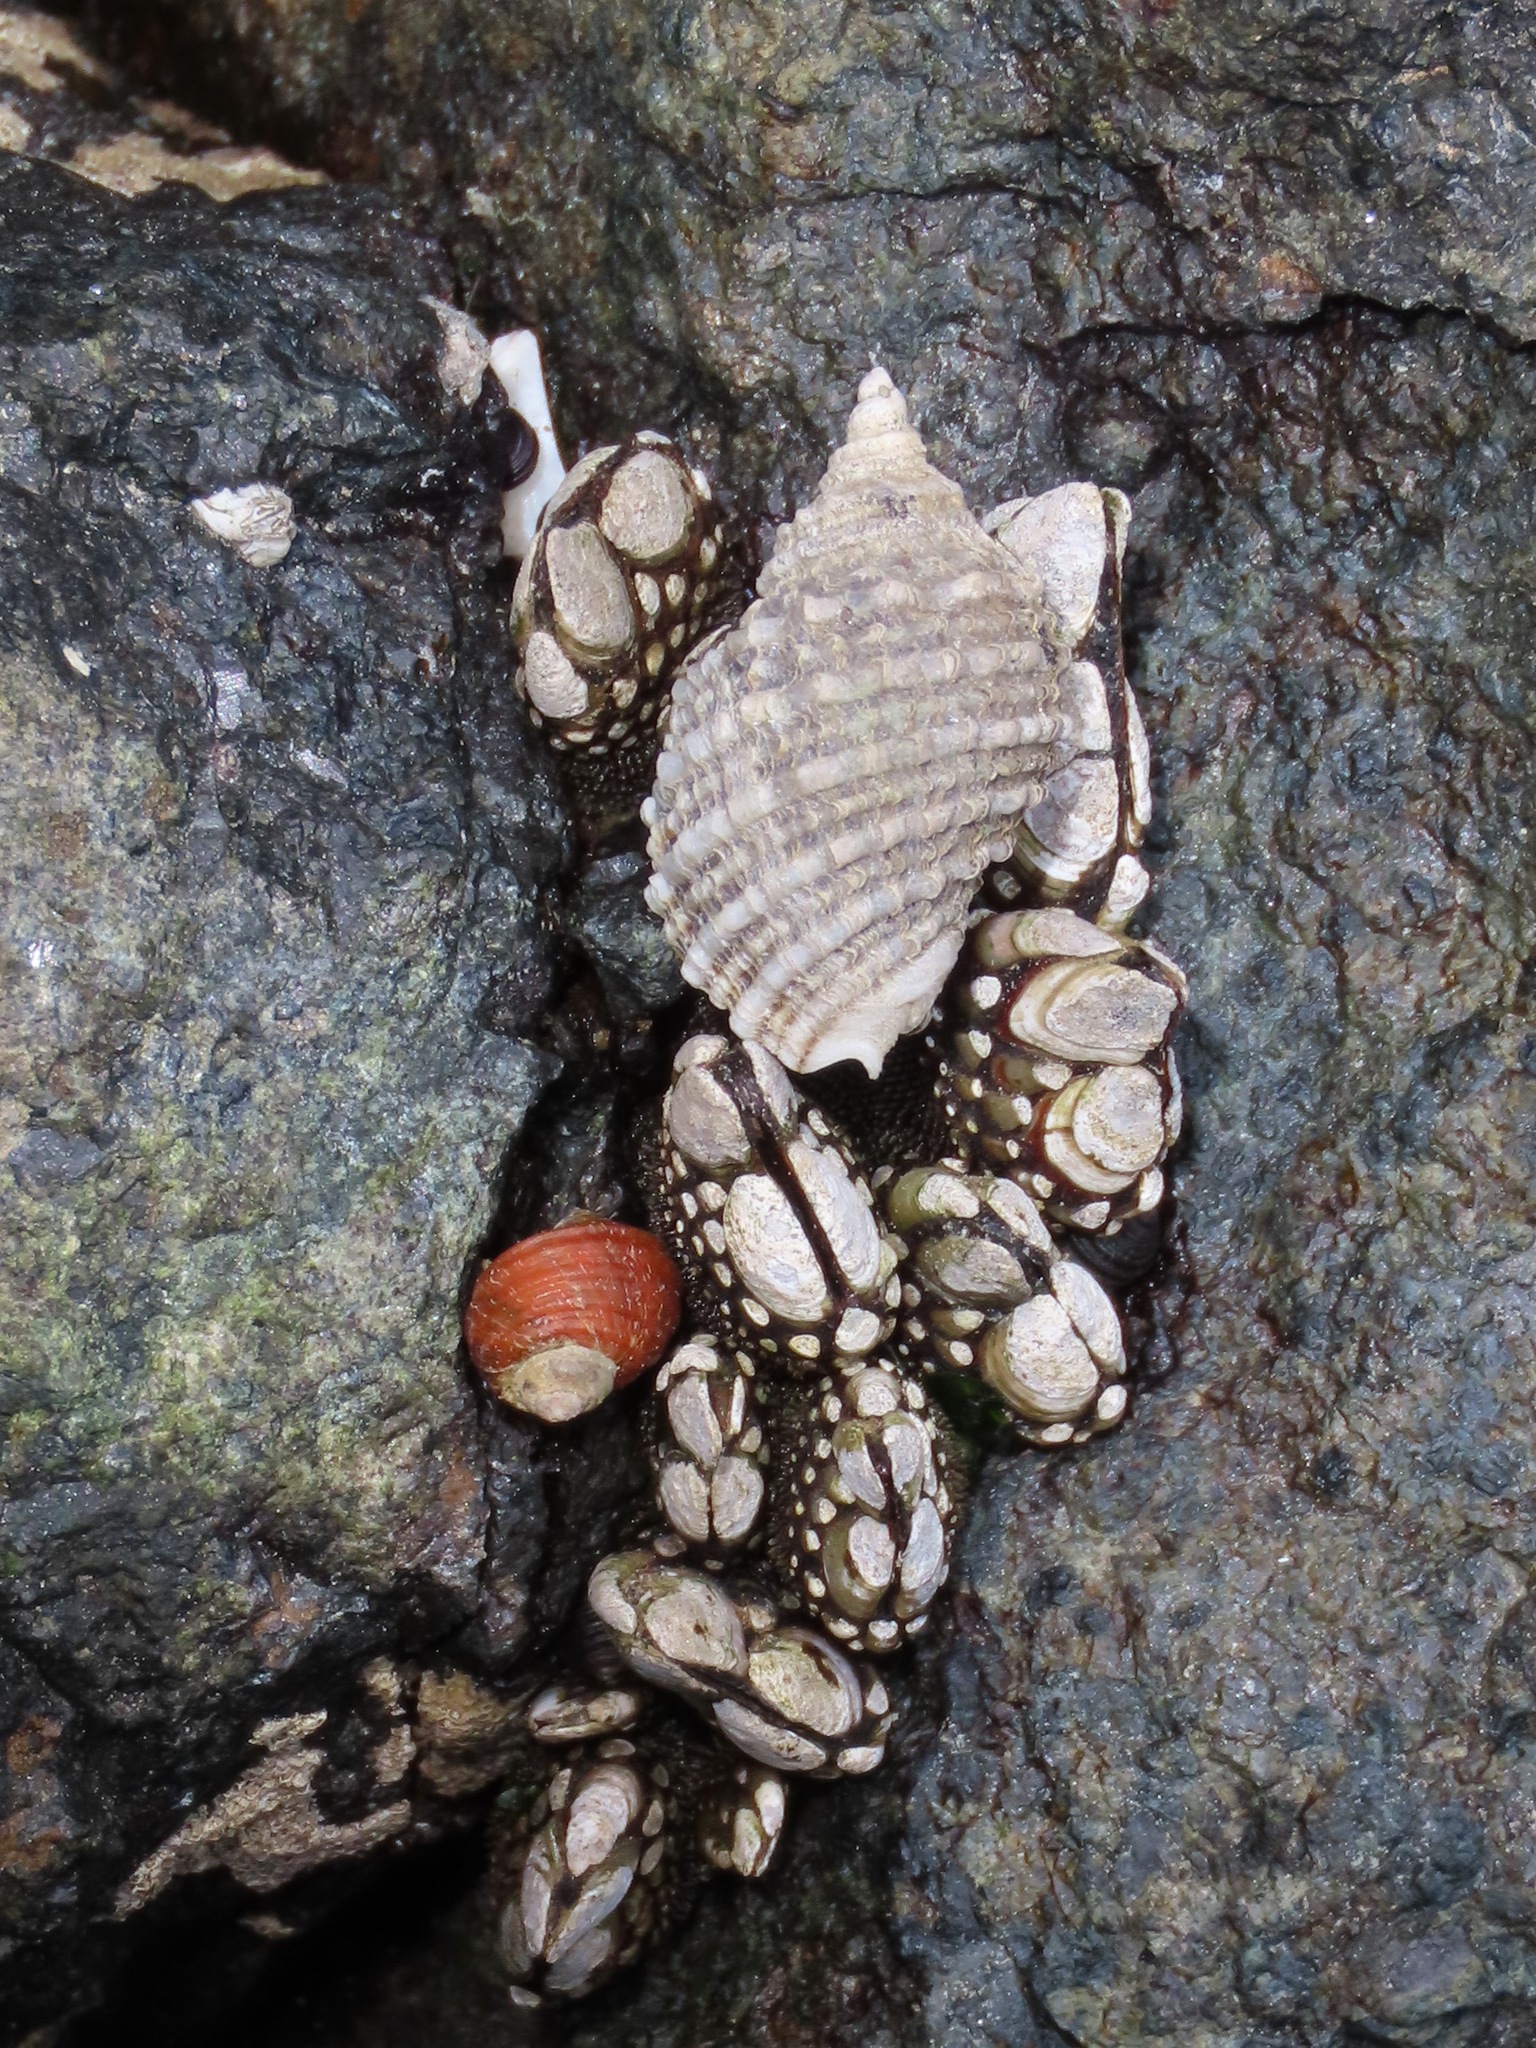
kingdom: Animalia
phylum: Mollusca
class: Gastropoda
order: Neogastropoda
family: Muricidae
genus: Nucella
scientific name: Nucella ostrina
